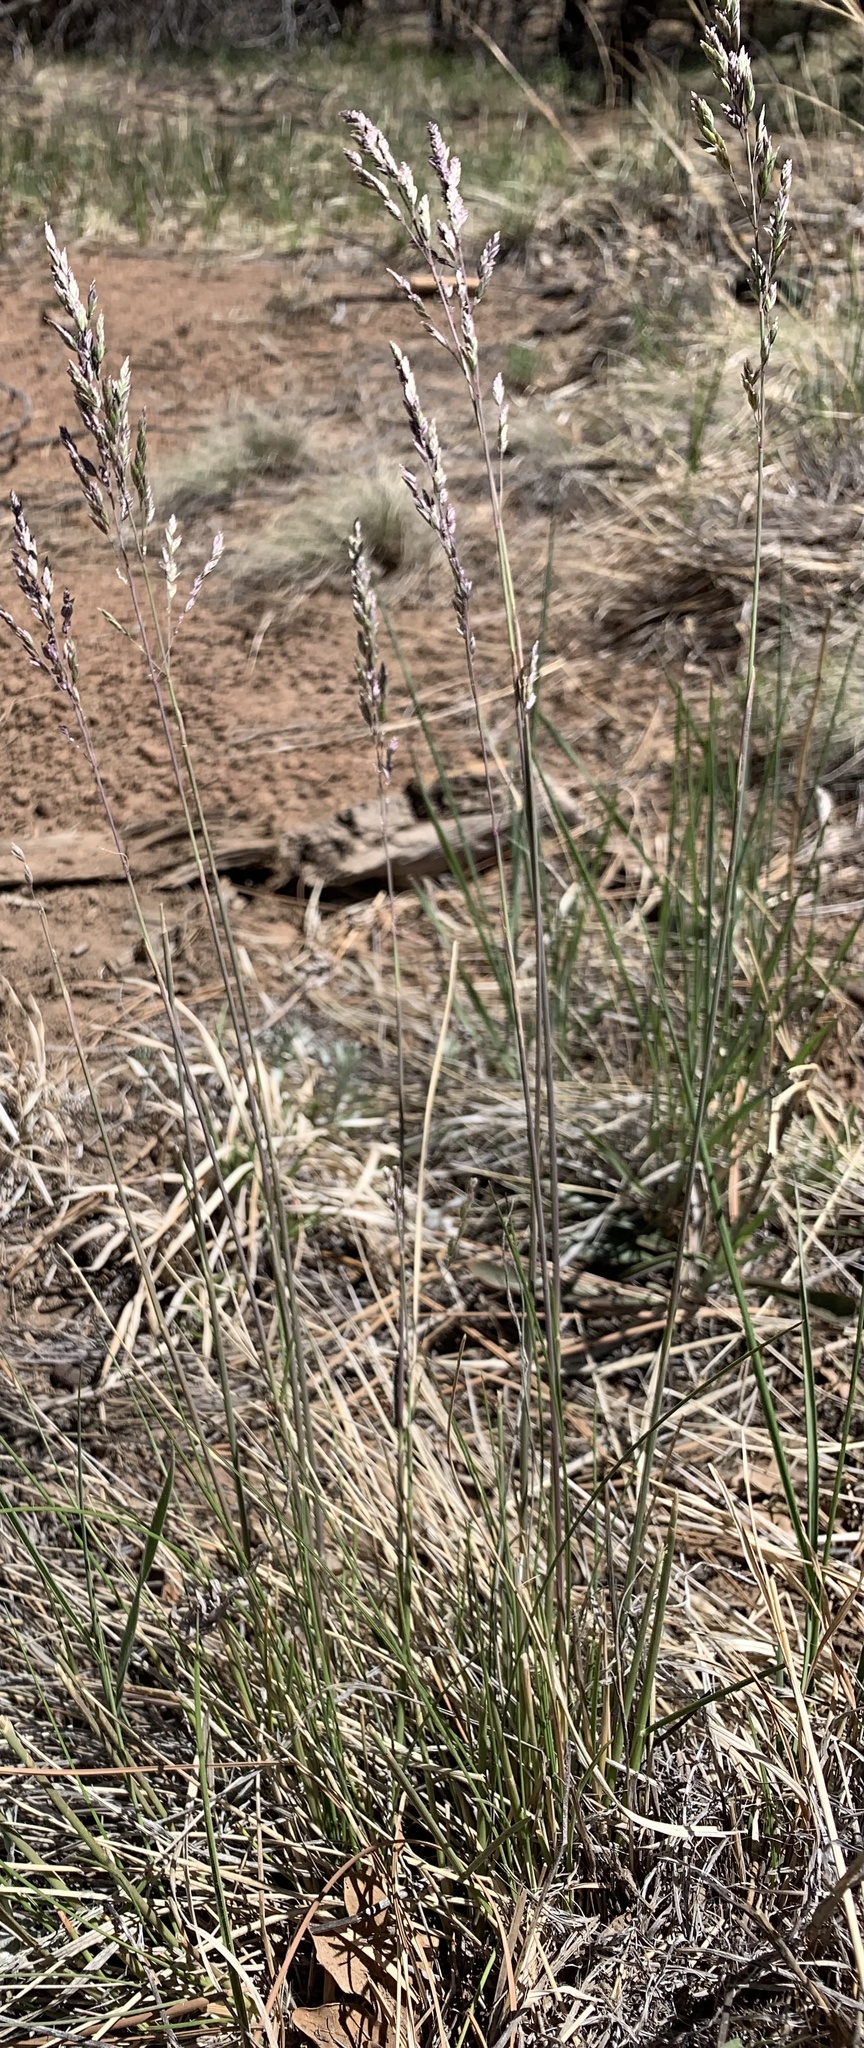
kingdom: Plantae
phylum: Tracheophyta
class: Liliopsida
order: Poales
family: Poaceae
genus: Poa
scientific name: Poa fendleriana
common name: Mutton bluegrass
